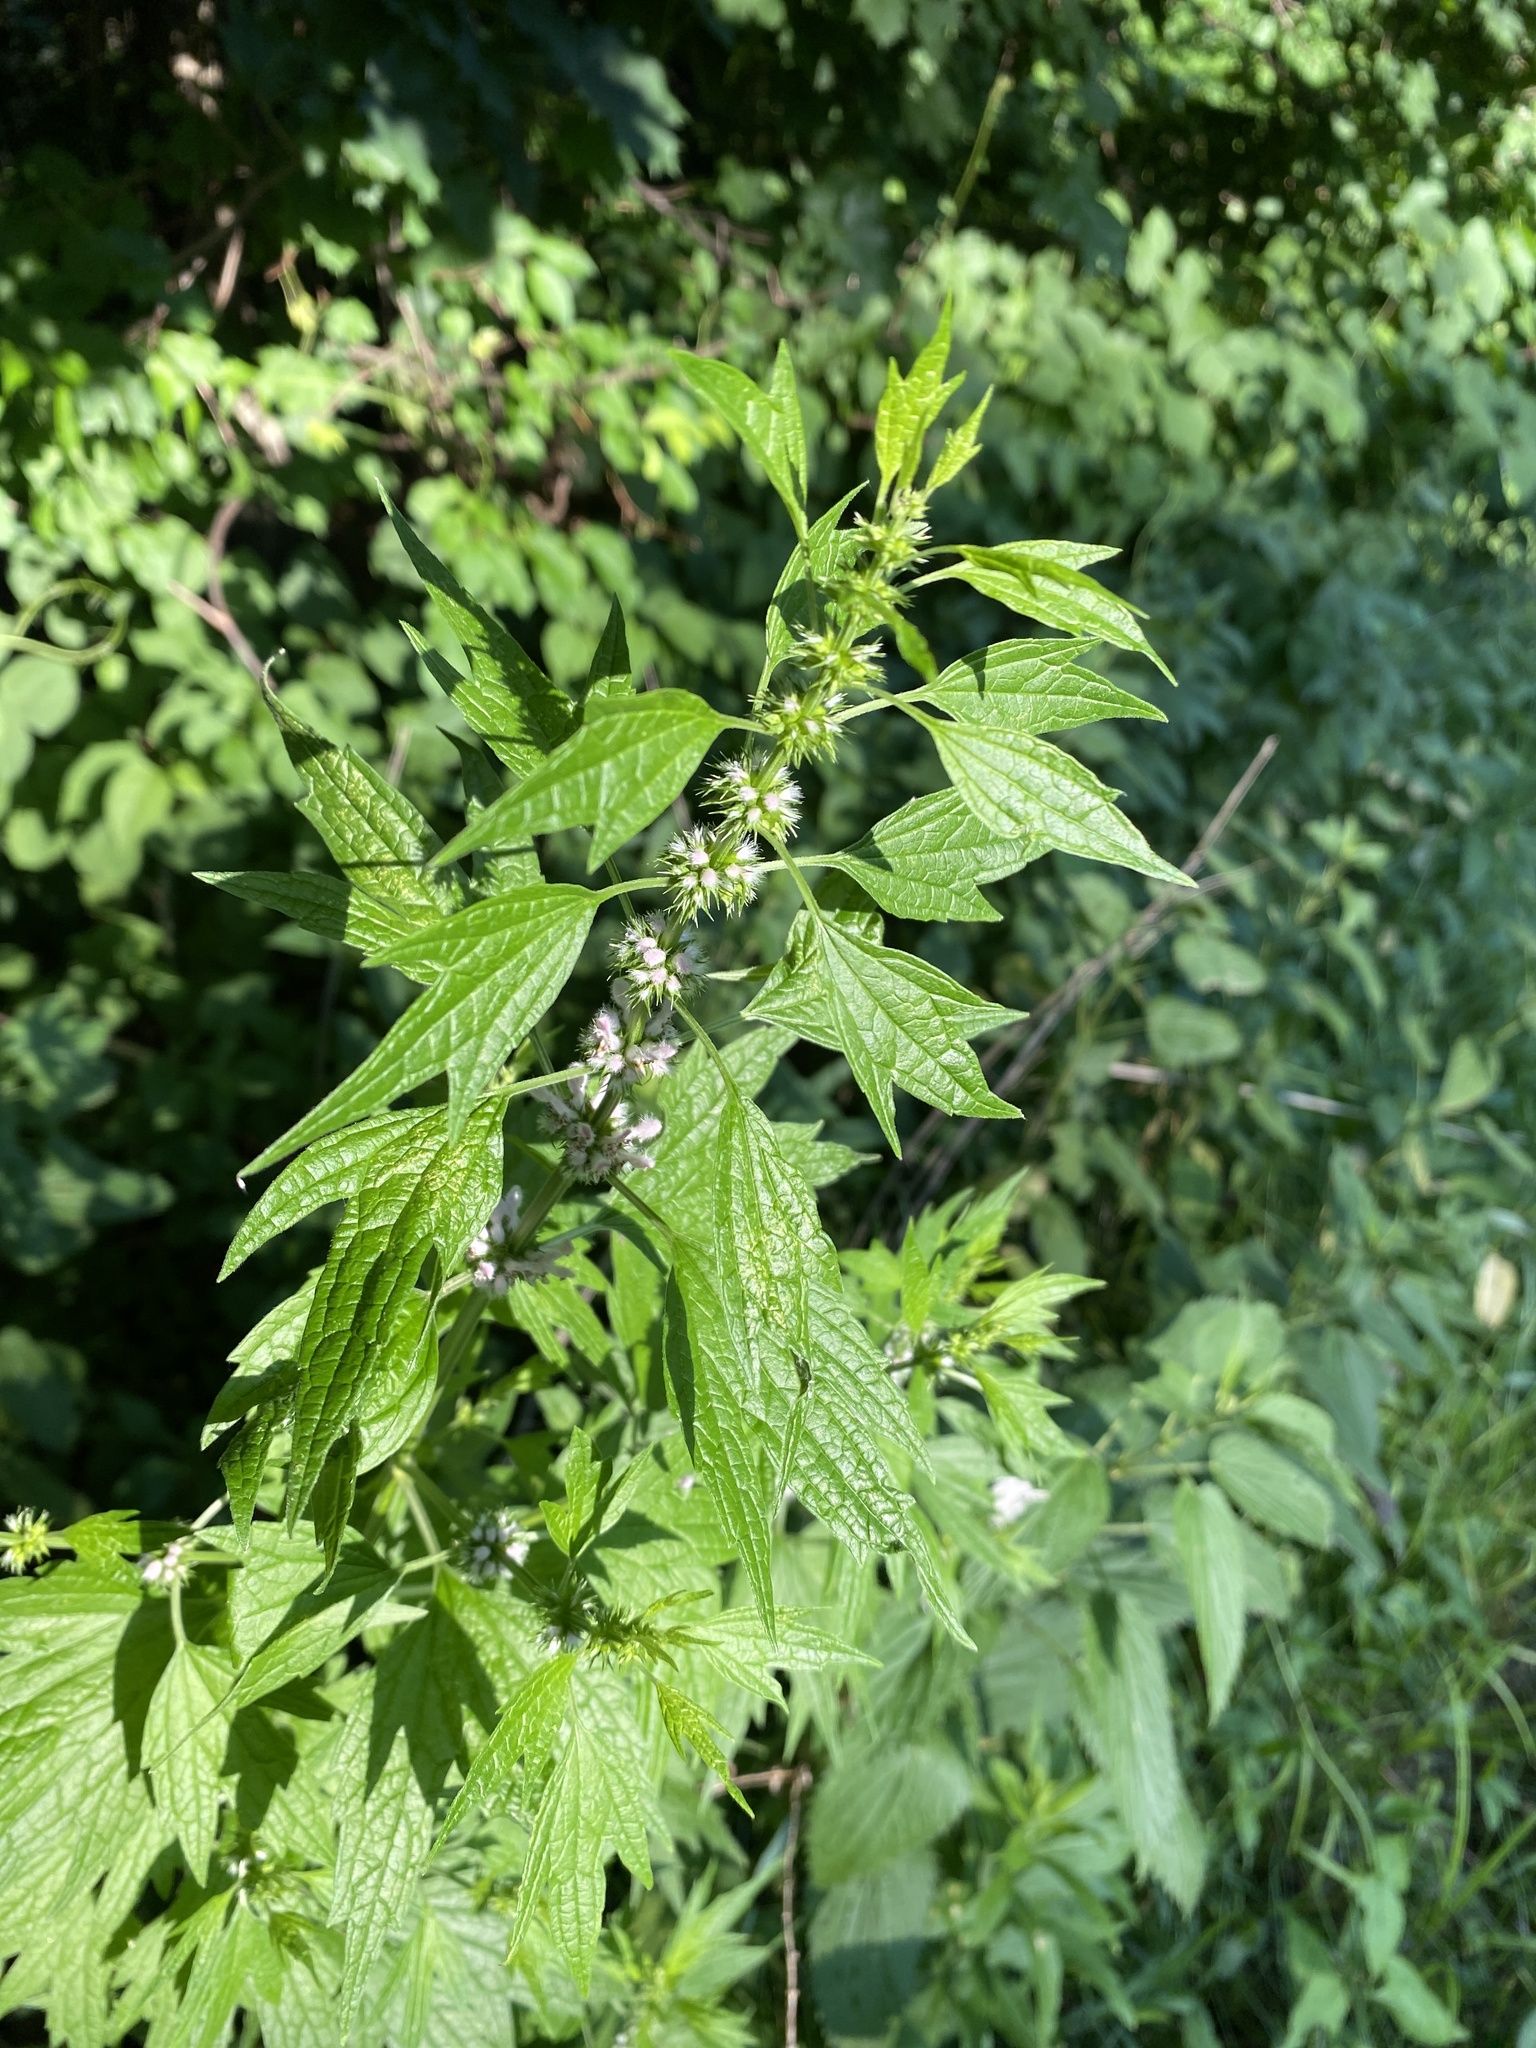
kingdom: Plantae
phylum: Tracheophyta
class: Magnoliopsida
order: Lamiales
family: Lamiaceae
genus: Leonurus
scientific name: Leonurus cardiaca
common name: Motherwort
